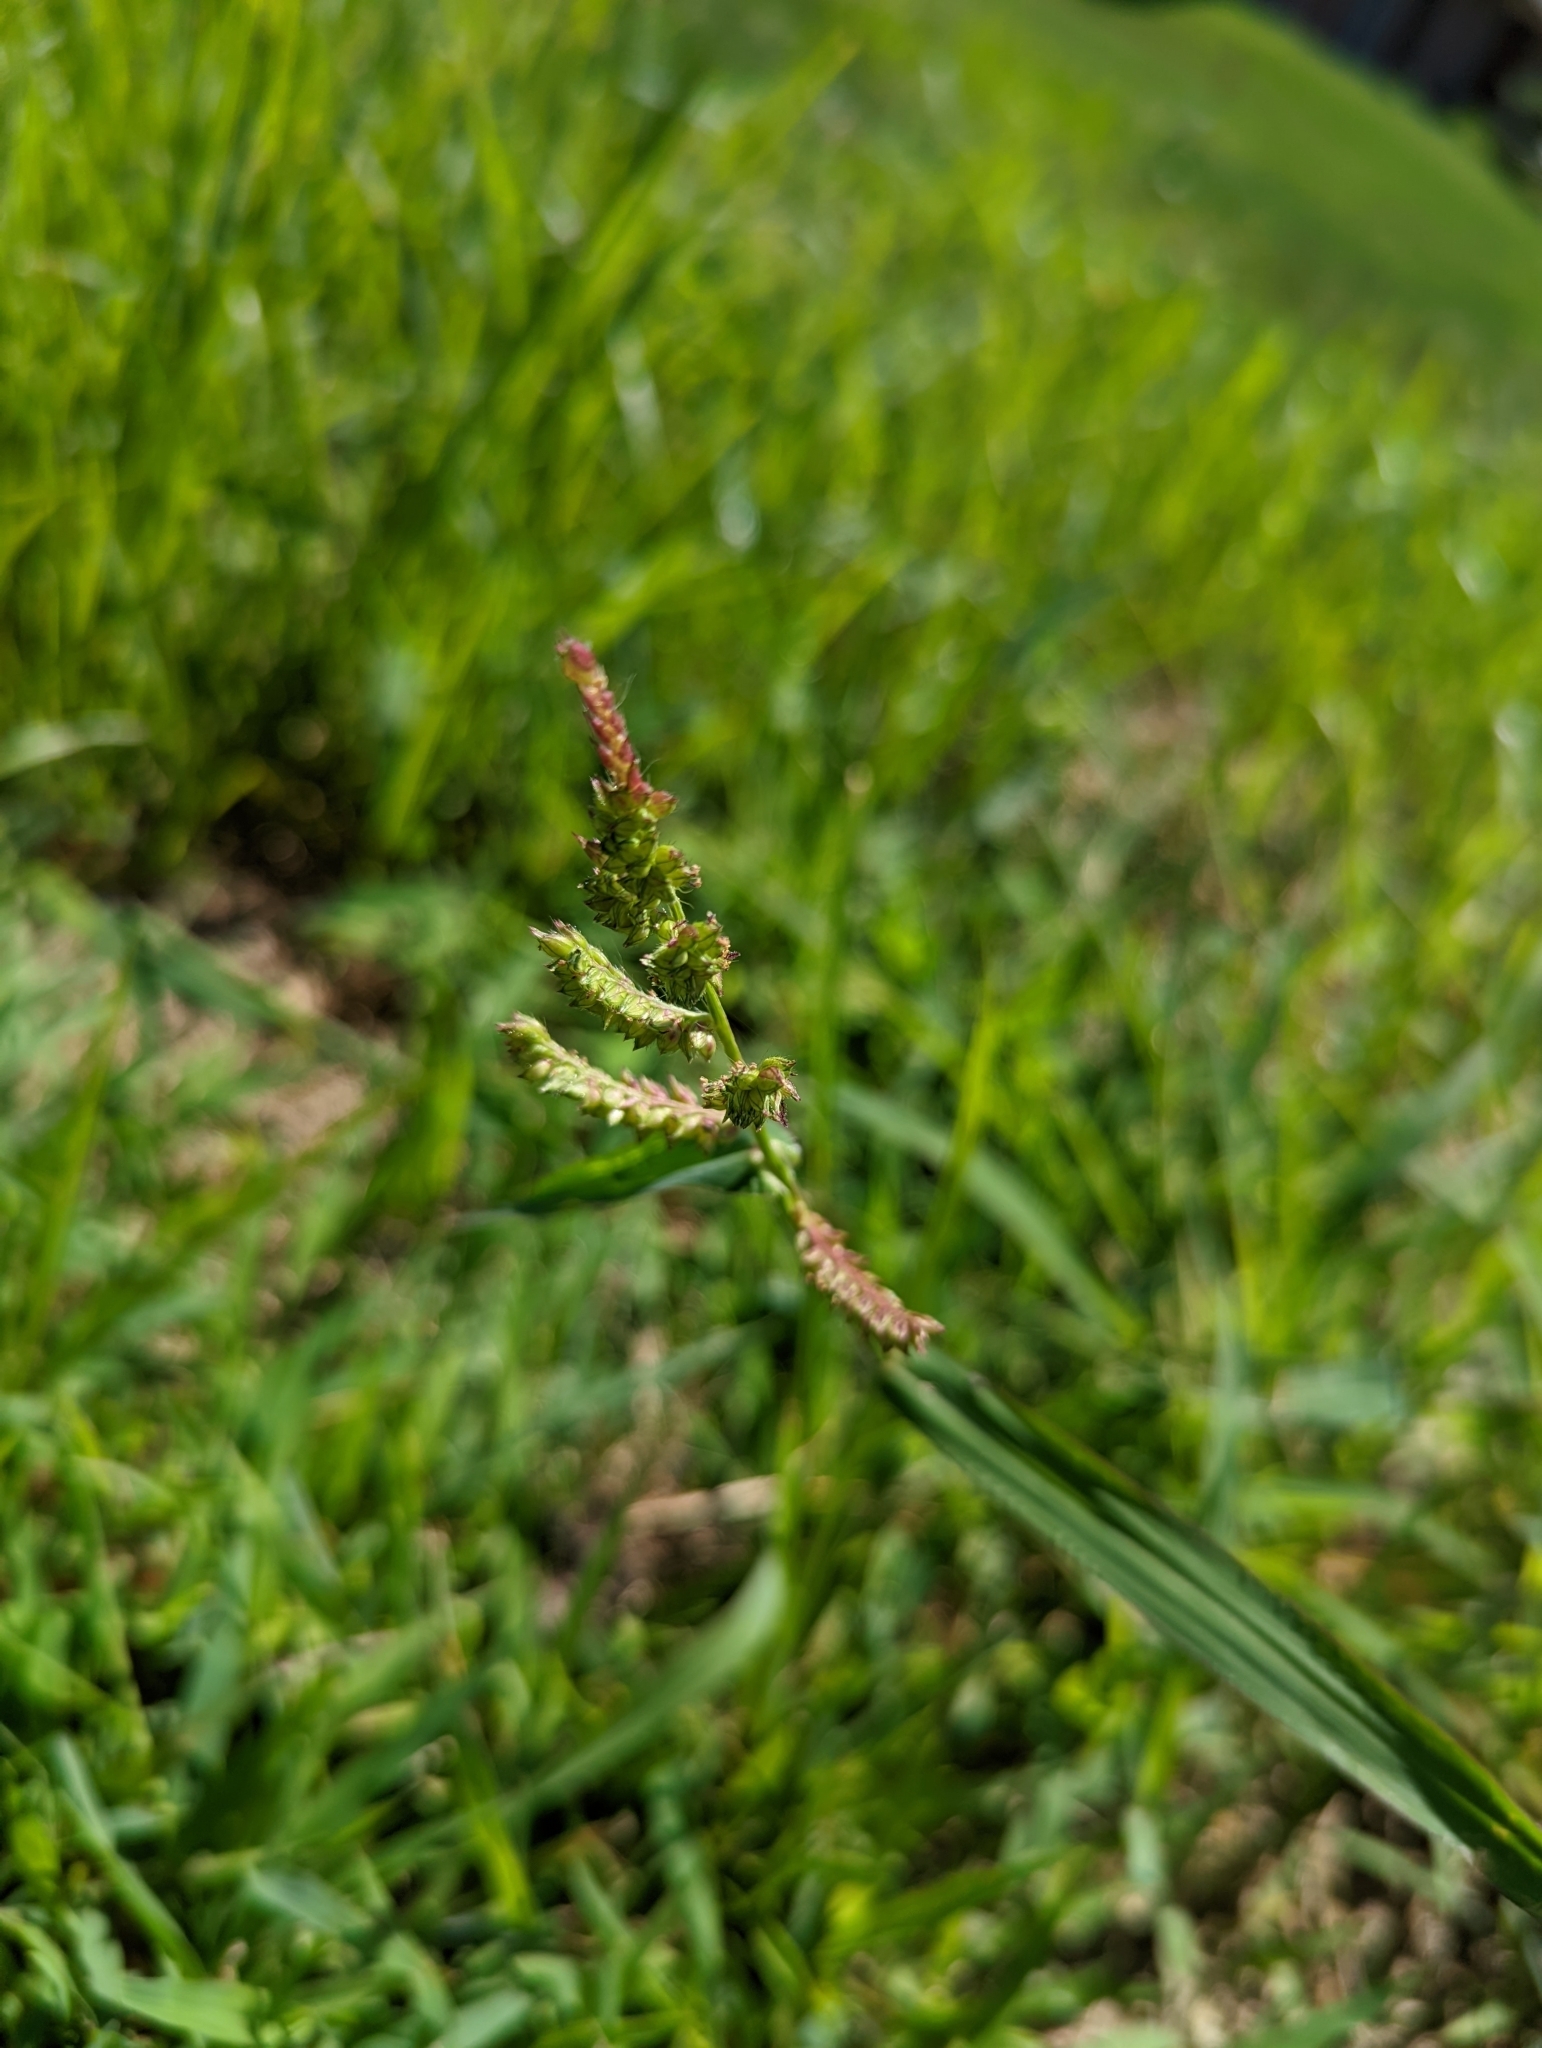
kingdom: Plantae
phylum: Tracheophyta
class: Liliopsida
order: Poales
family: Poaceae
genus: Echinochloa
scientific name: Echinochloa crus-galli
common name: Cockspur
